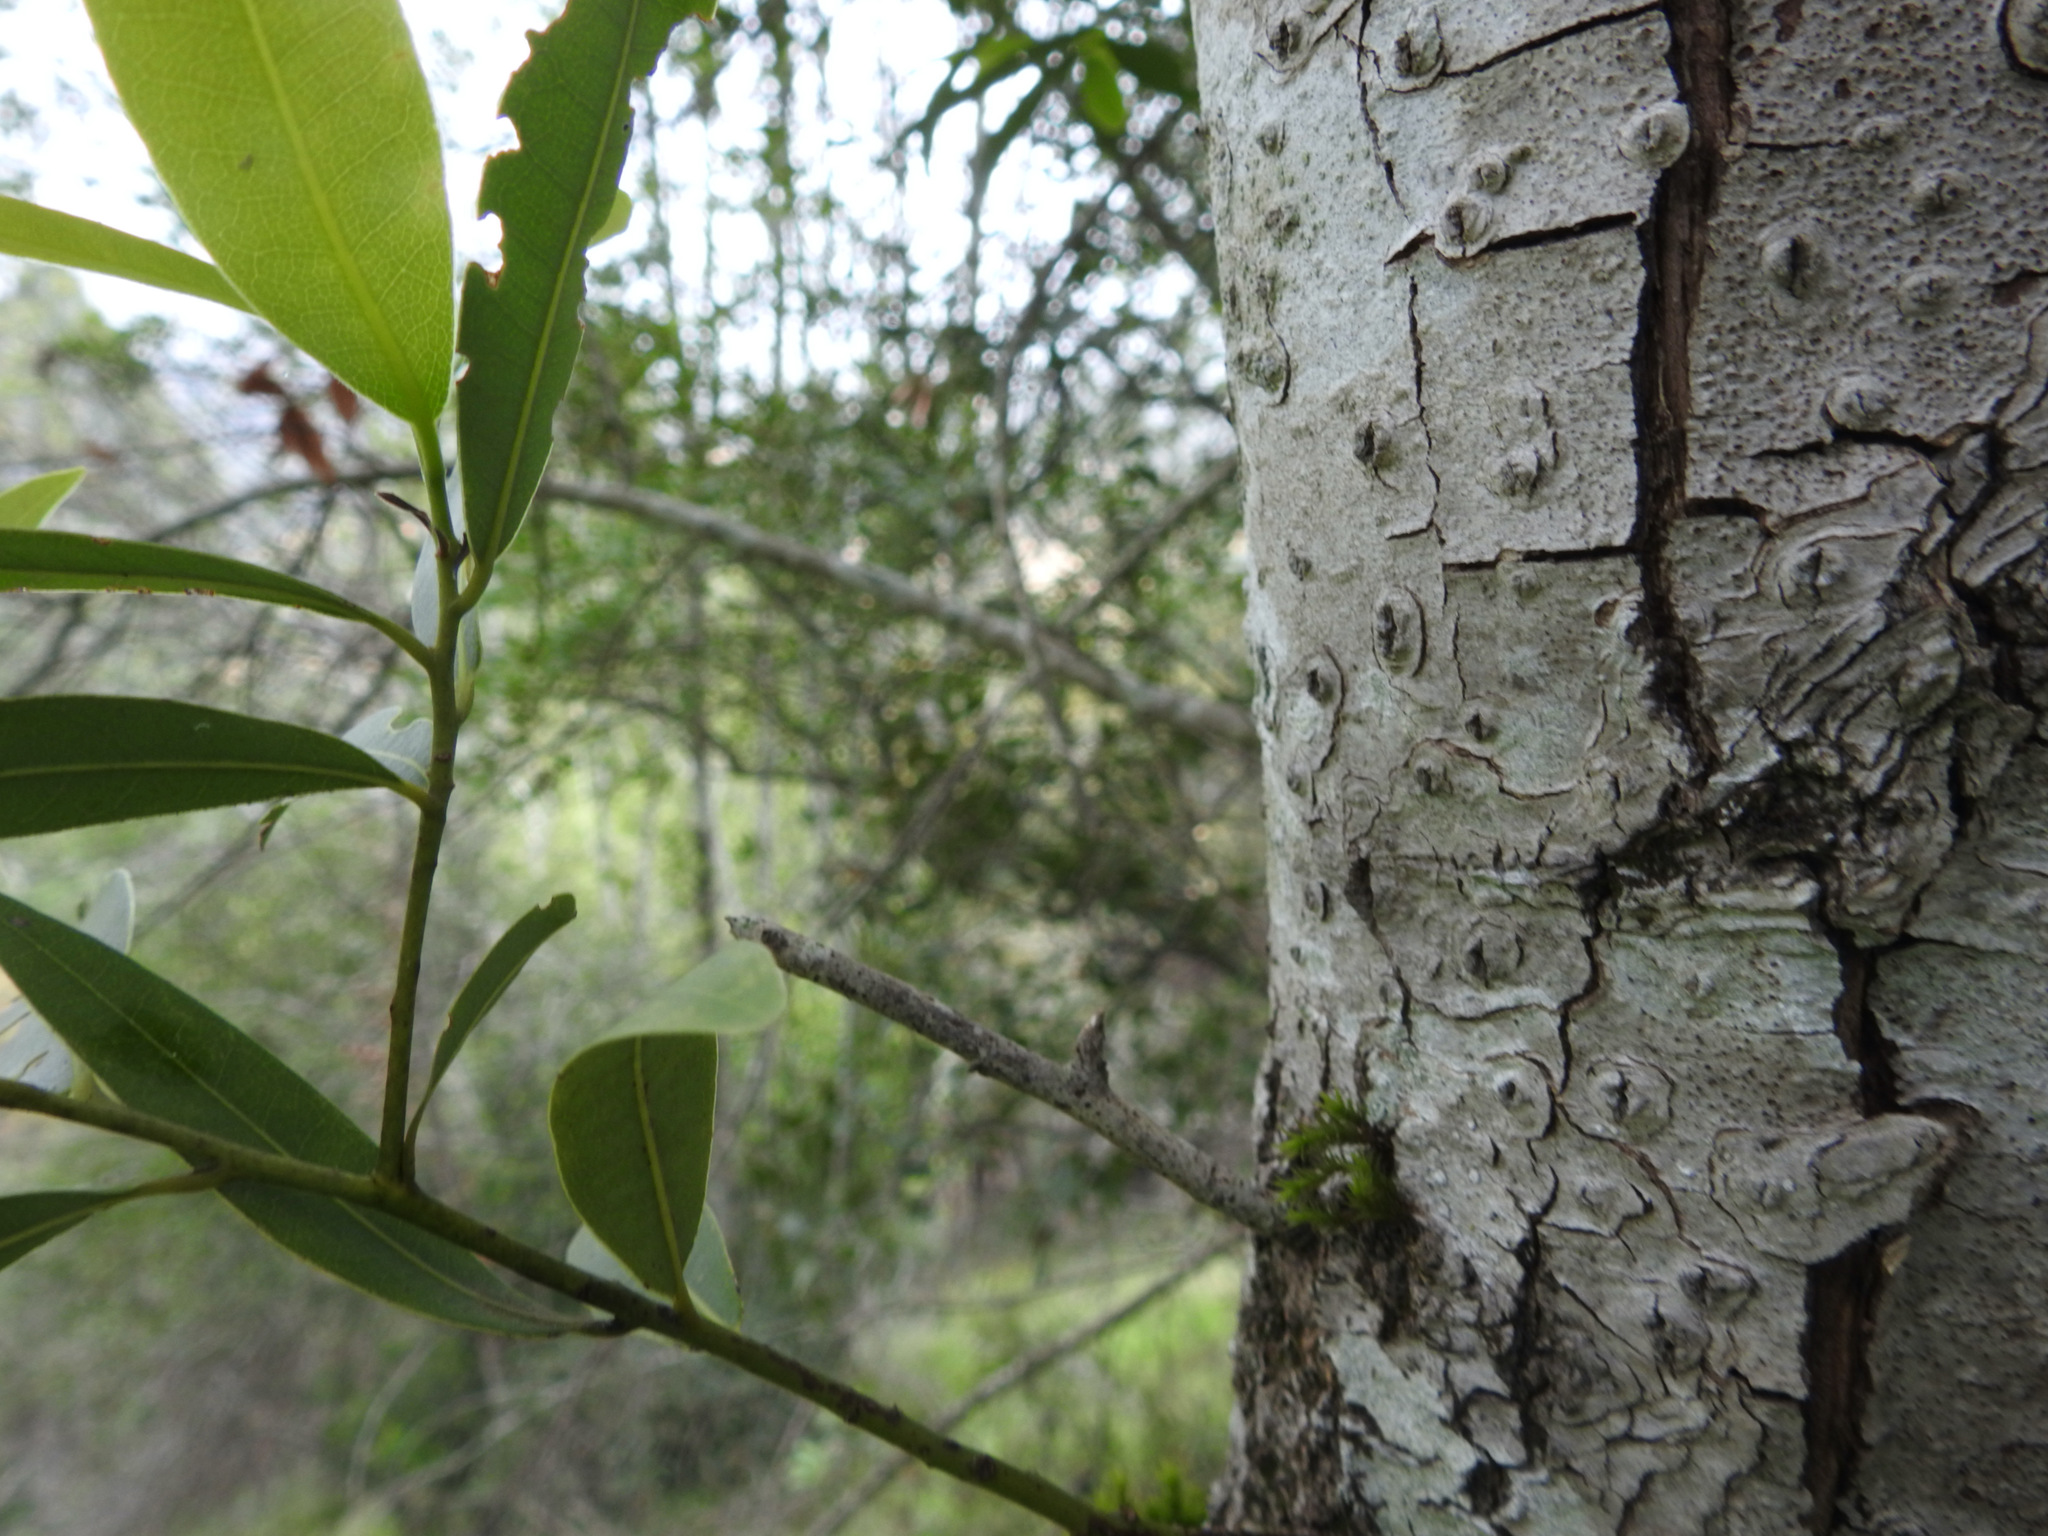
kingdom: Plantae
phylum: Tracheophyta
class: Magnoliopsida
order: Laurales
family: Lauraceae
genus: Umbellularia
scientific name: Umbellularia californica
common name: California bay
